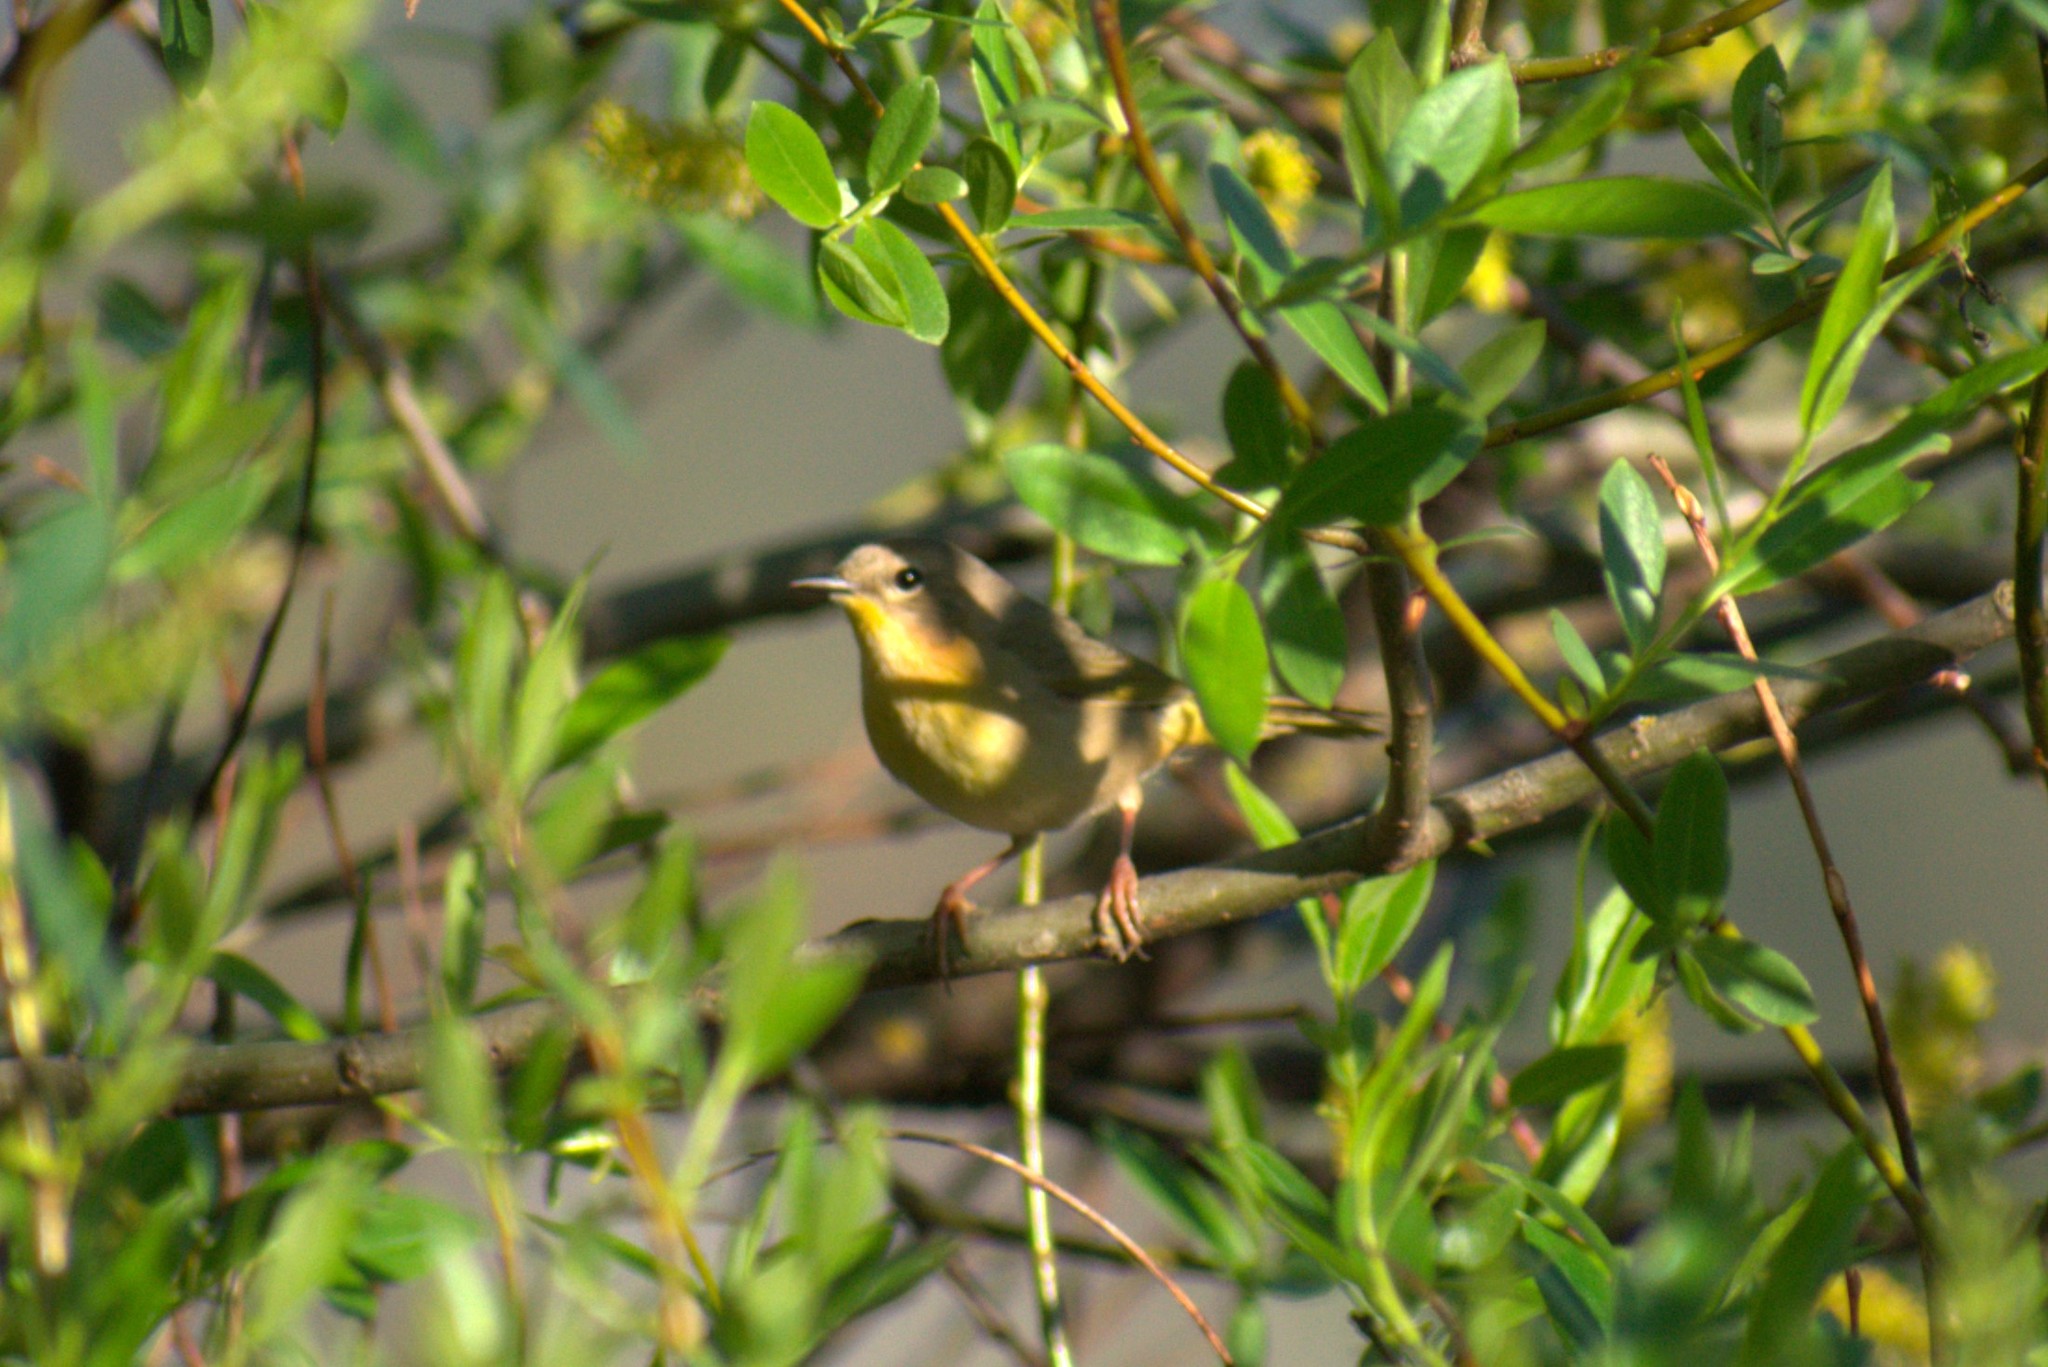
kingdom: Animalia
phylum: Chordata
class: Aves
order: Passeriformes
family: Parulidae
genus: Geothlypis
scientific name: Geothlypis trichas
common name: Common yellowthroat
